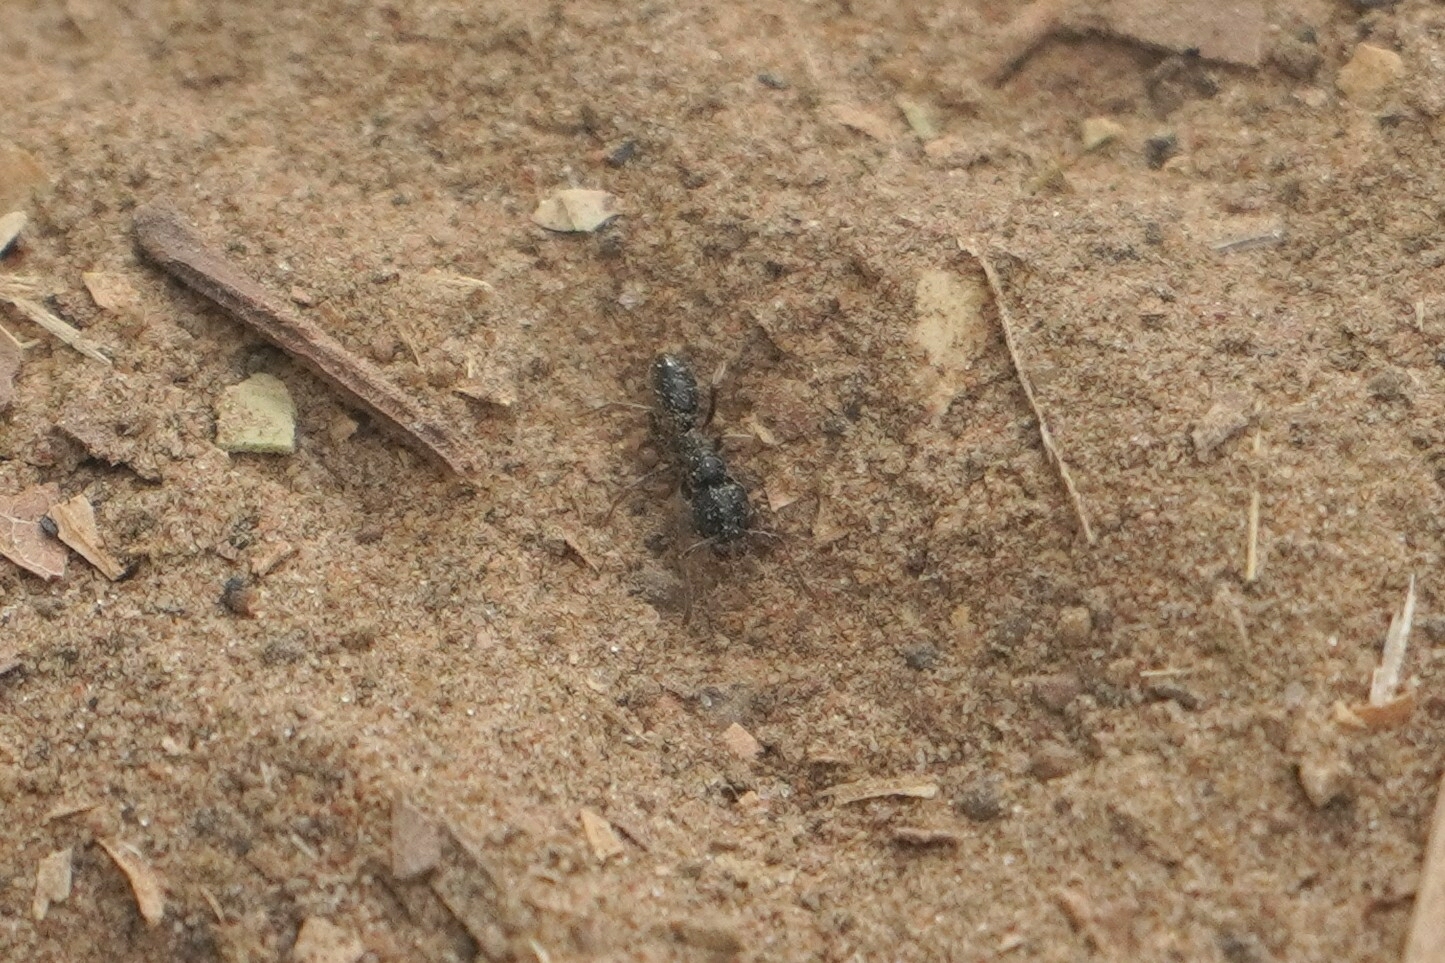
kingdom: Animalia
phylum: Arthropoda
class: Insecta
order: Hymenoptera
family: Formicidae
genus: Pachycondyla
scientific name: Pachycondyla sennaarensis
